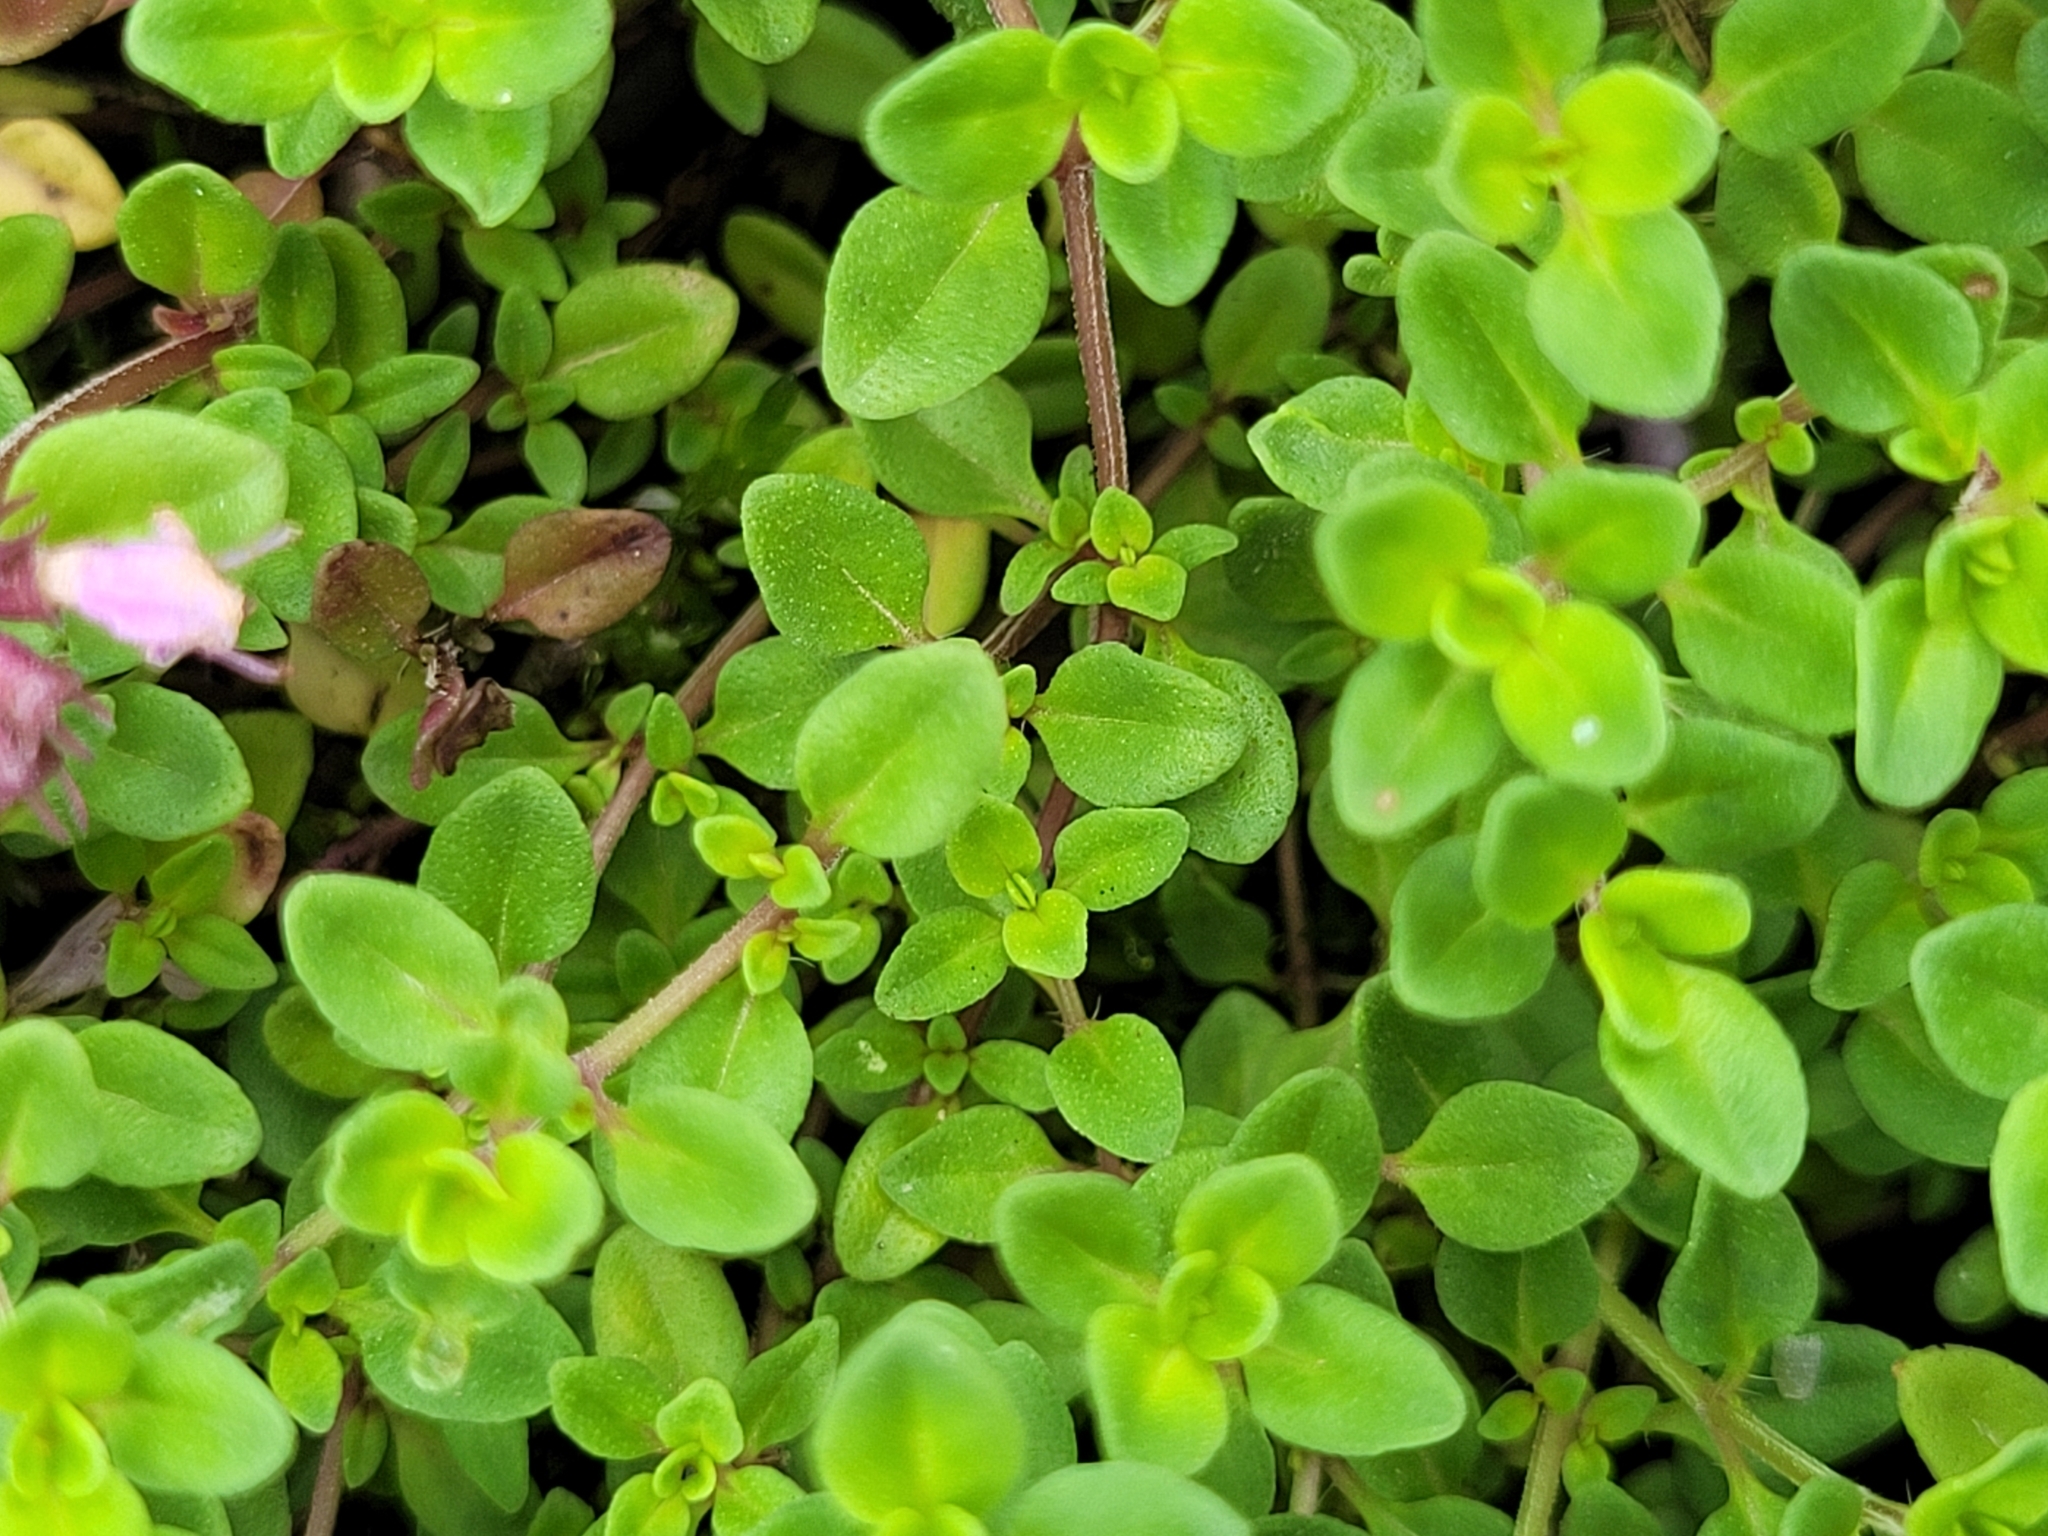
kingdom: Plantae
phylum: Tracheophyta
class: Magnoliopsida
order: Lamiales
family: Lamiaceae
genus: Thymus
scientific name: Thymus pulegioides
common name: Large thyme
